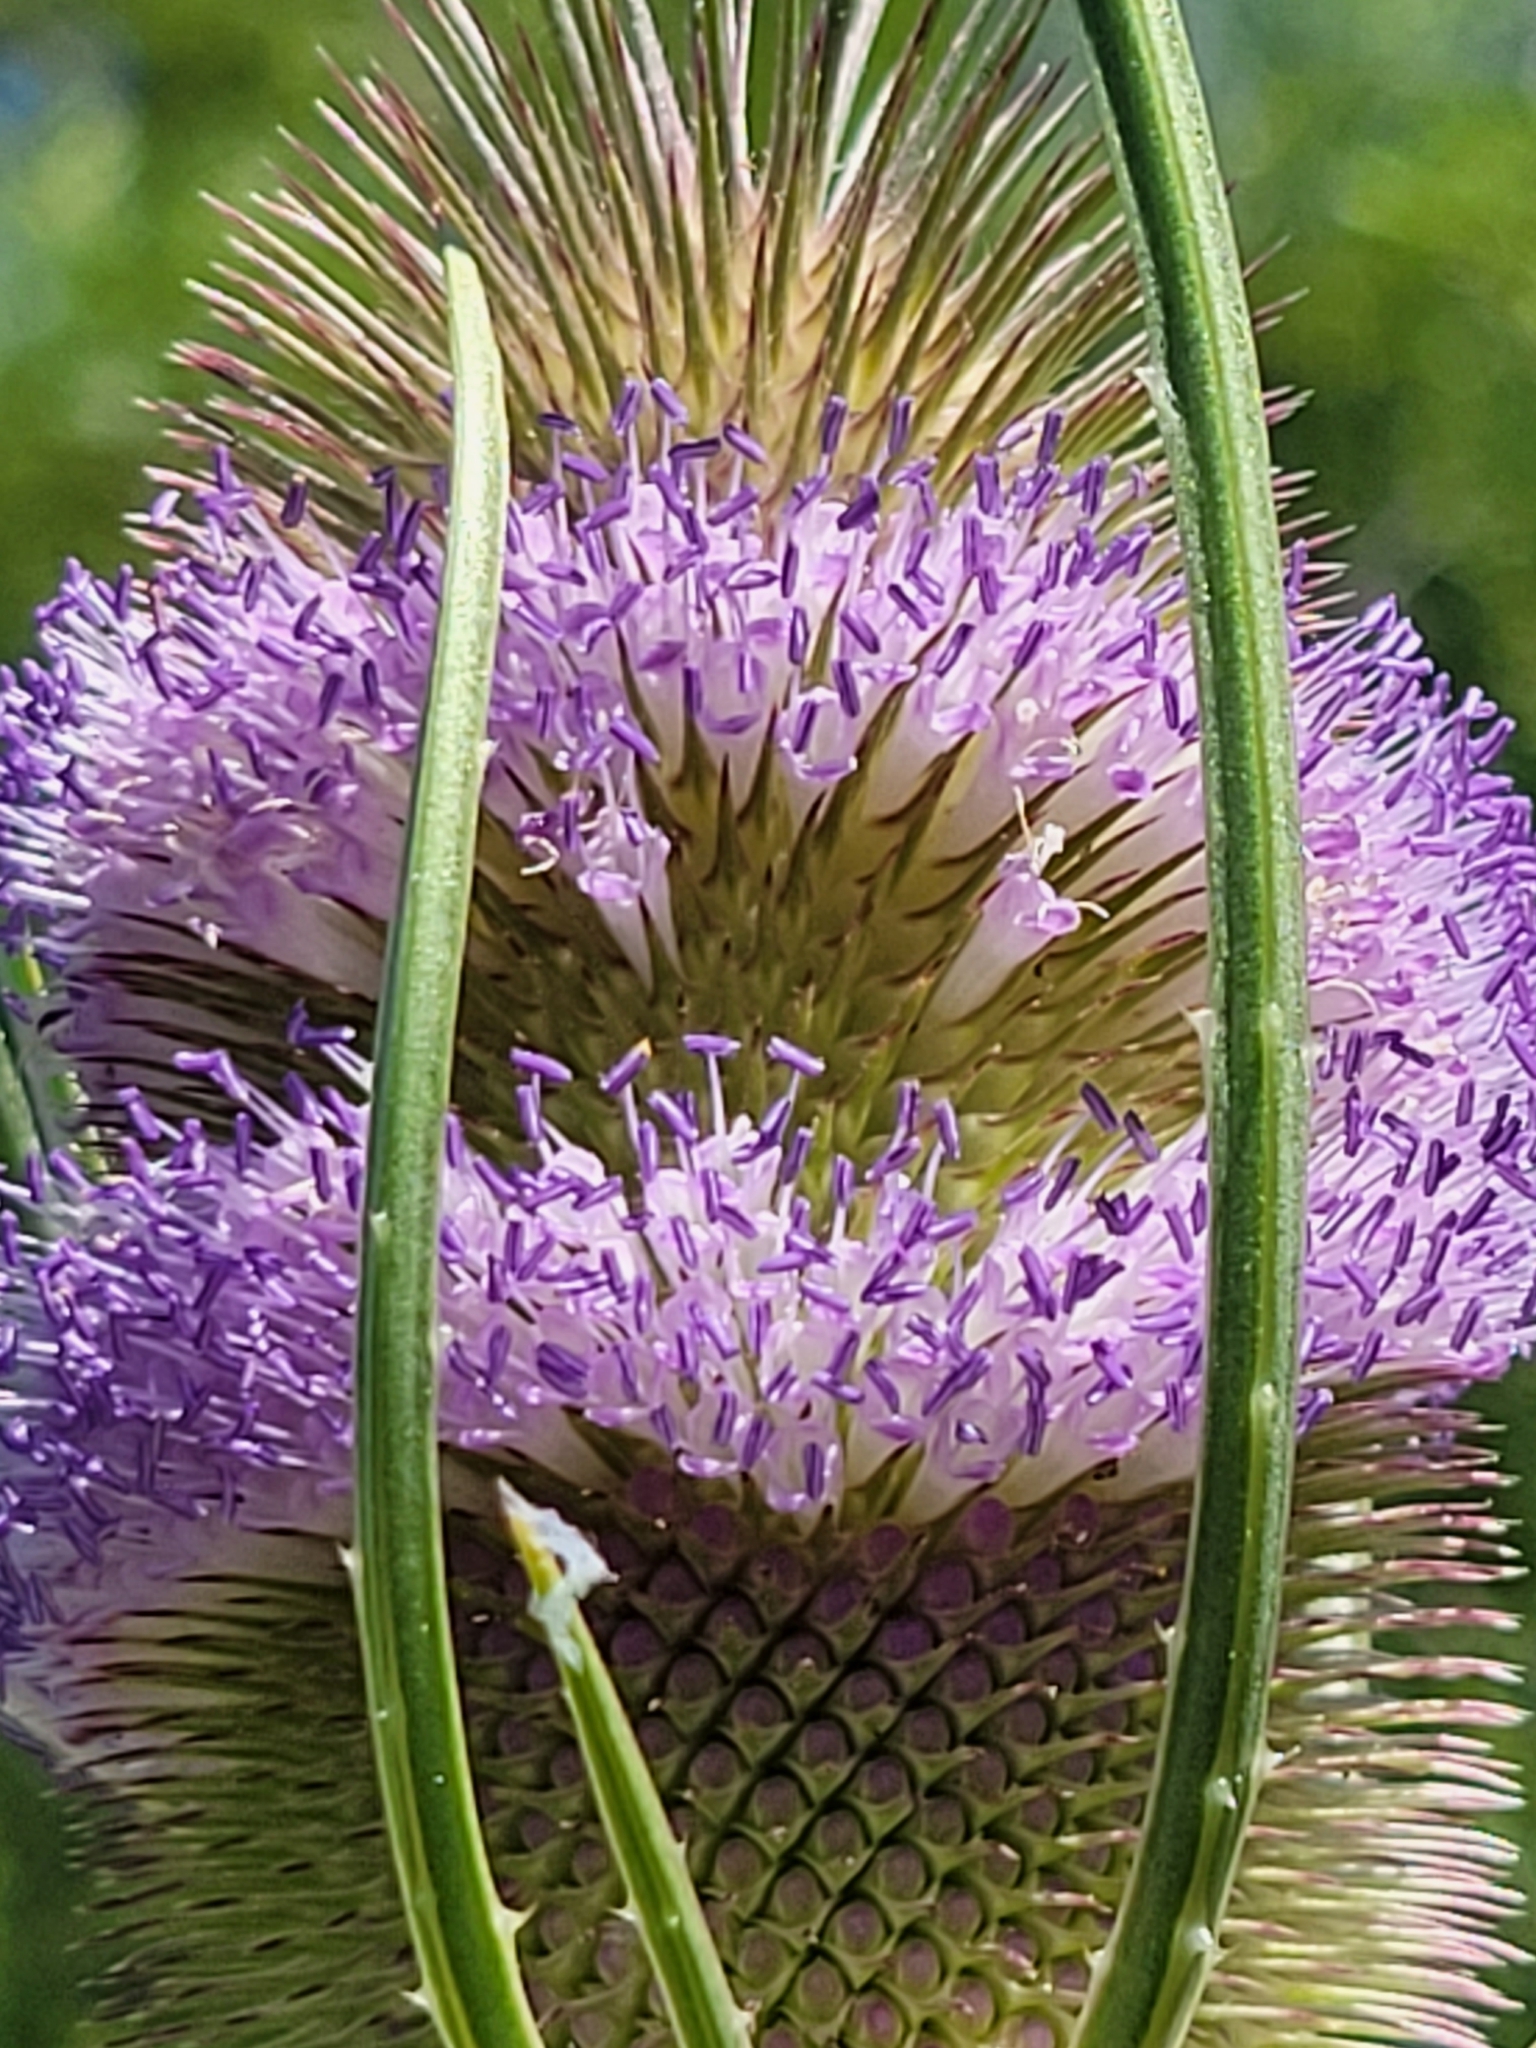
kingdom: Plantae
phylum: Tracheophyta
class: Magnoliopsida
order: Dipsacales
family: Caprifoliaceae
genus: Dipsacus
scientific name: Dipsacus fullonum
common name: Teasel
